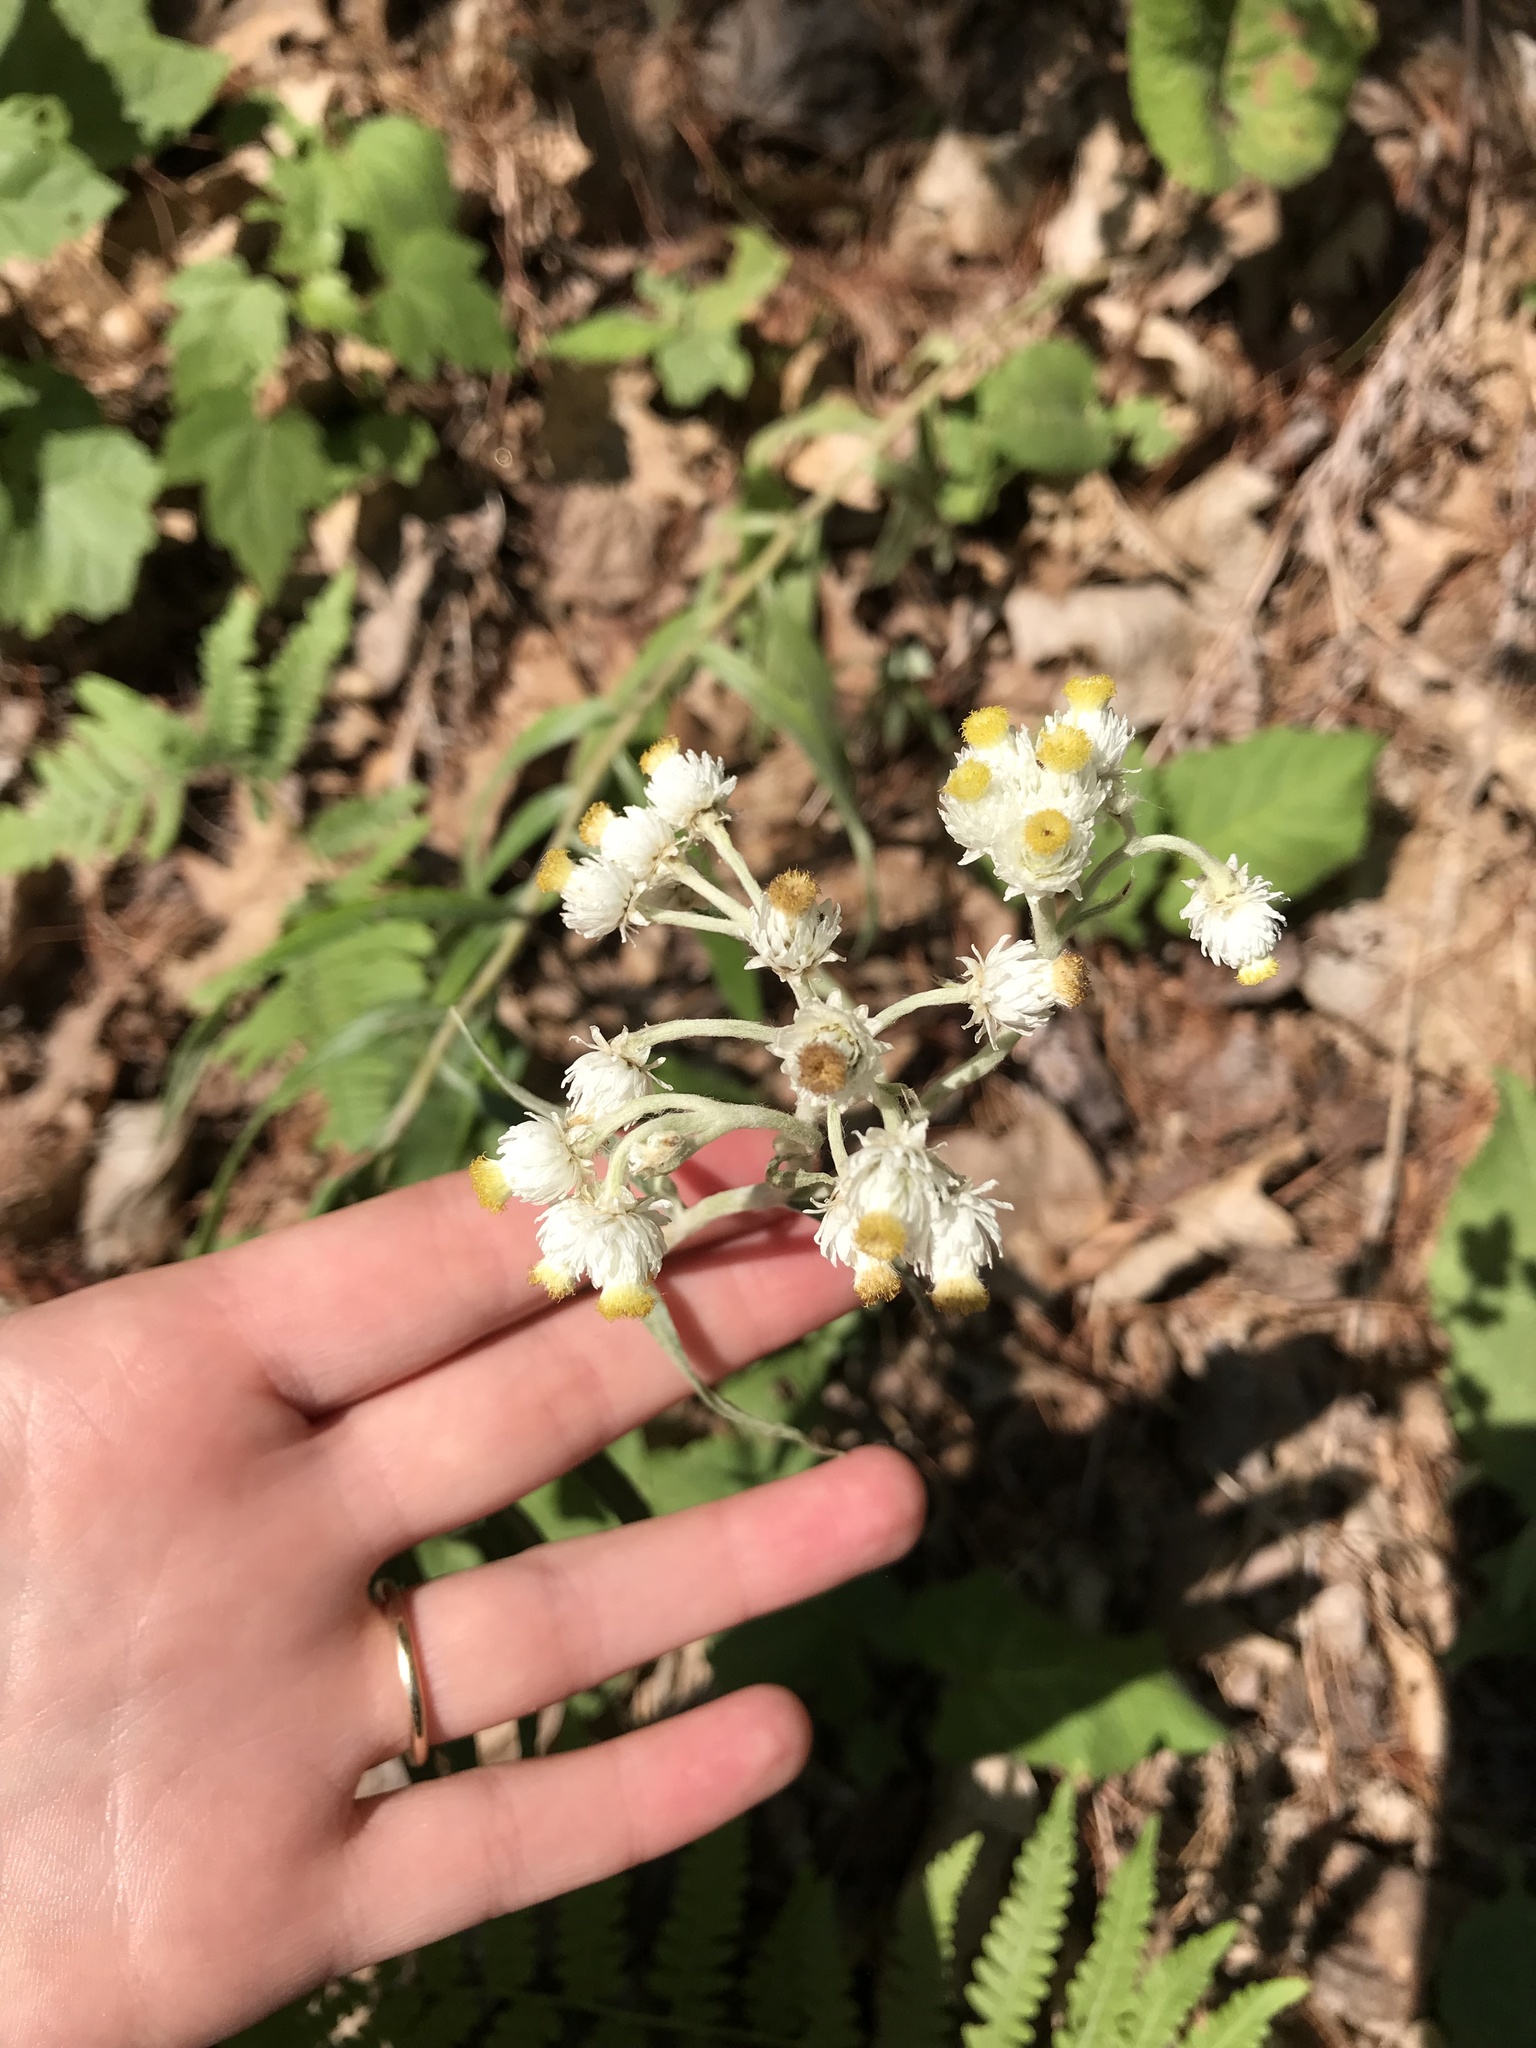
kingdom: Plantae
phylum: Tracheophyta
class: Magnoliopsida
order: Asterales
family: Asteraceae
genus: Anaphalis
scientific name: Anaphalis margaritacea
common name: Pearly everlasting
